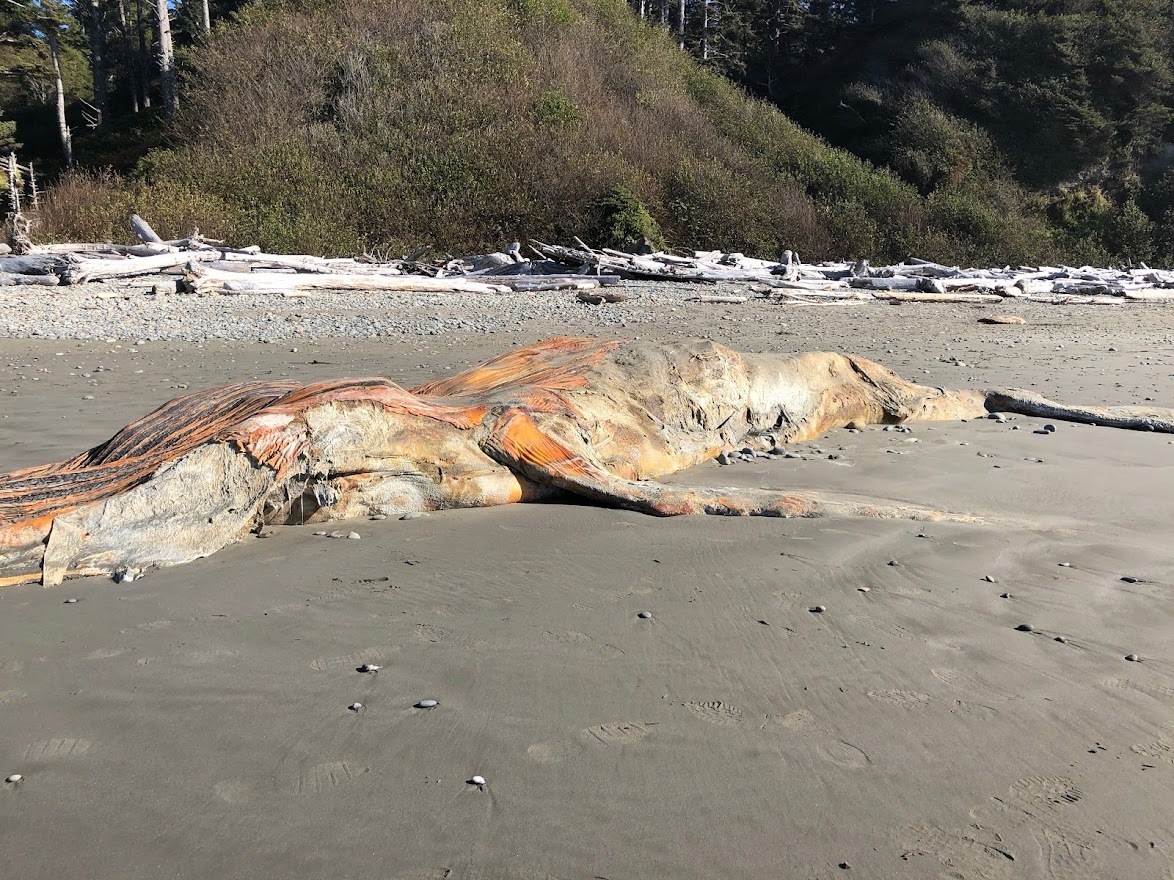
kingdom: Animalia
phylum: Chordata
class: Mammalia
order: Cetacea
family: Balaenopteridae
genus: Megaptera
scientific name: Megaptera novaeangliae
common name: Humpback whale
